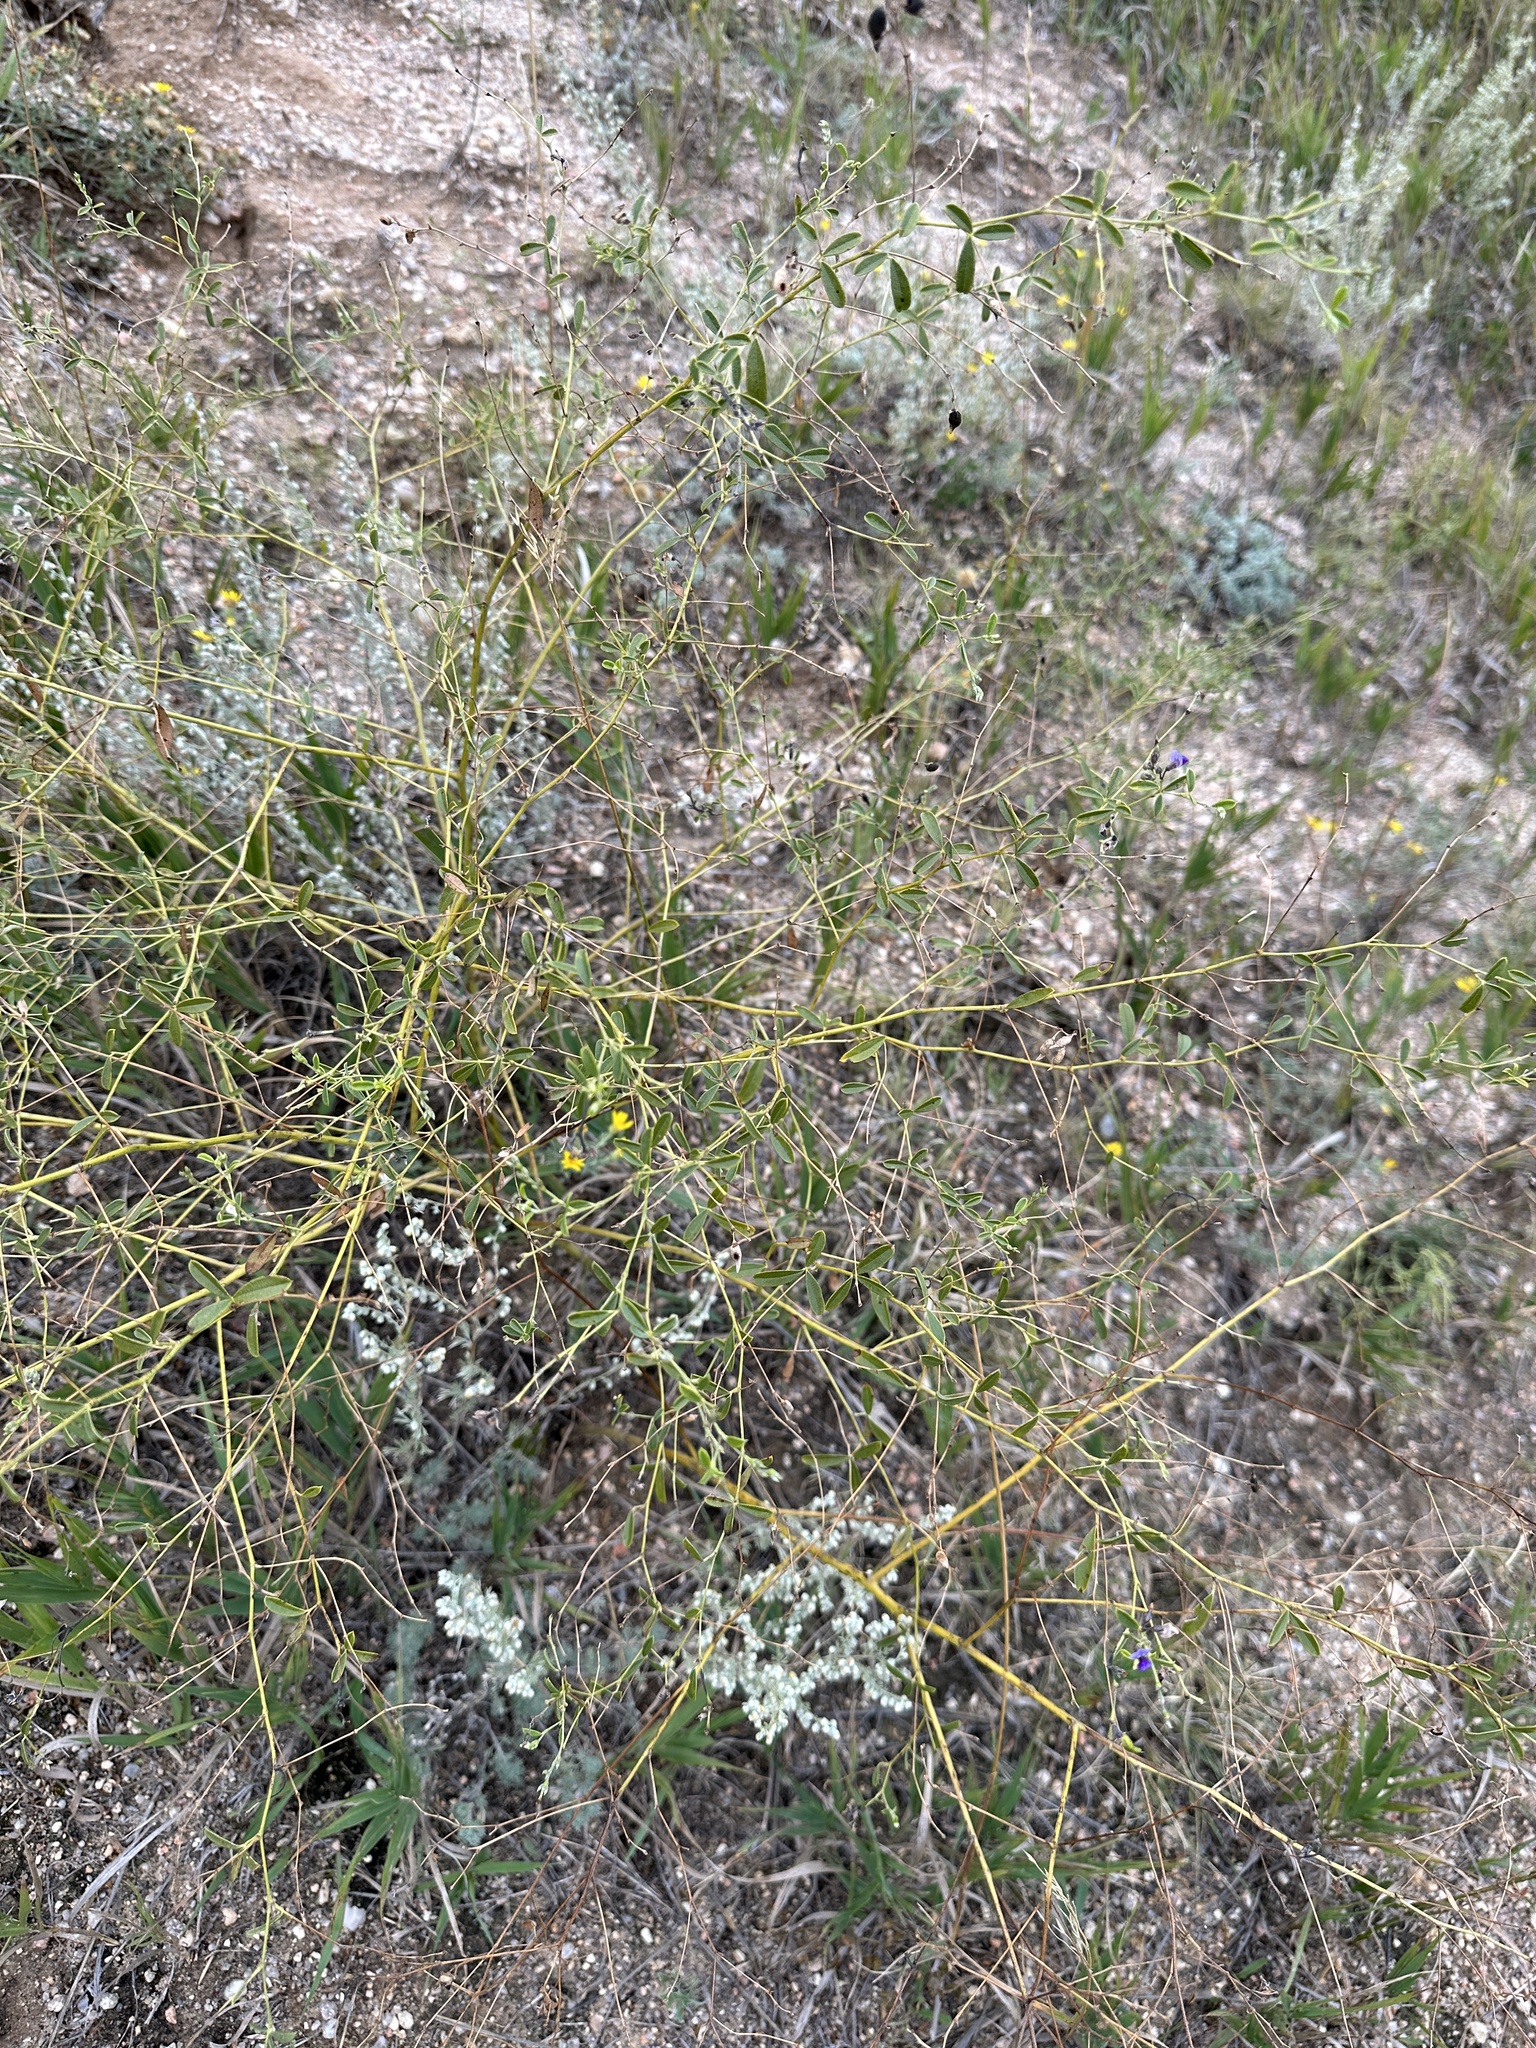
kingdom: Plantae
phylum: Tracheophyta
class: Magnoliopsida
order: Fabales
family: Fabaceae
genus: Pediomelum
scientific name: Pediomelum tenuiflorum
